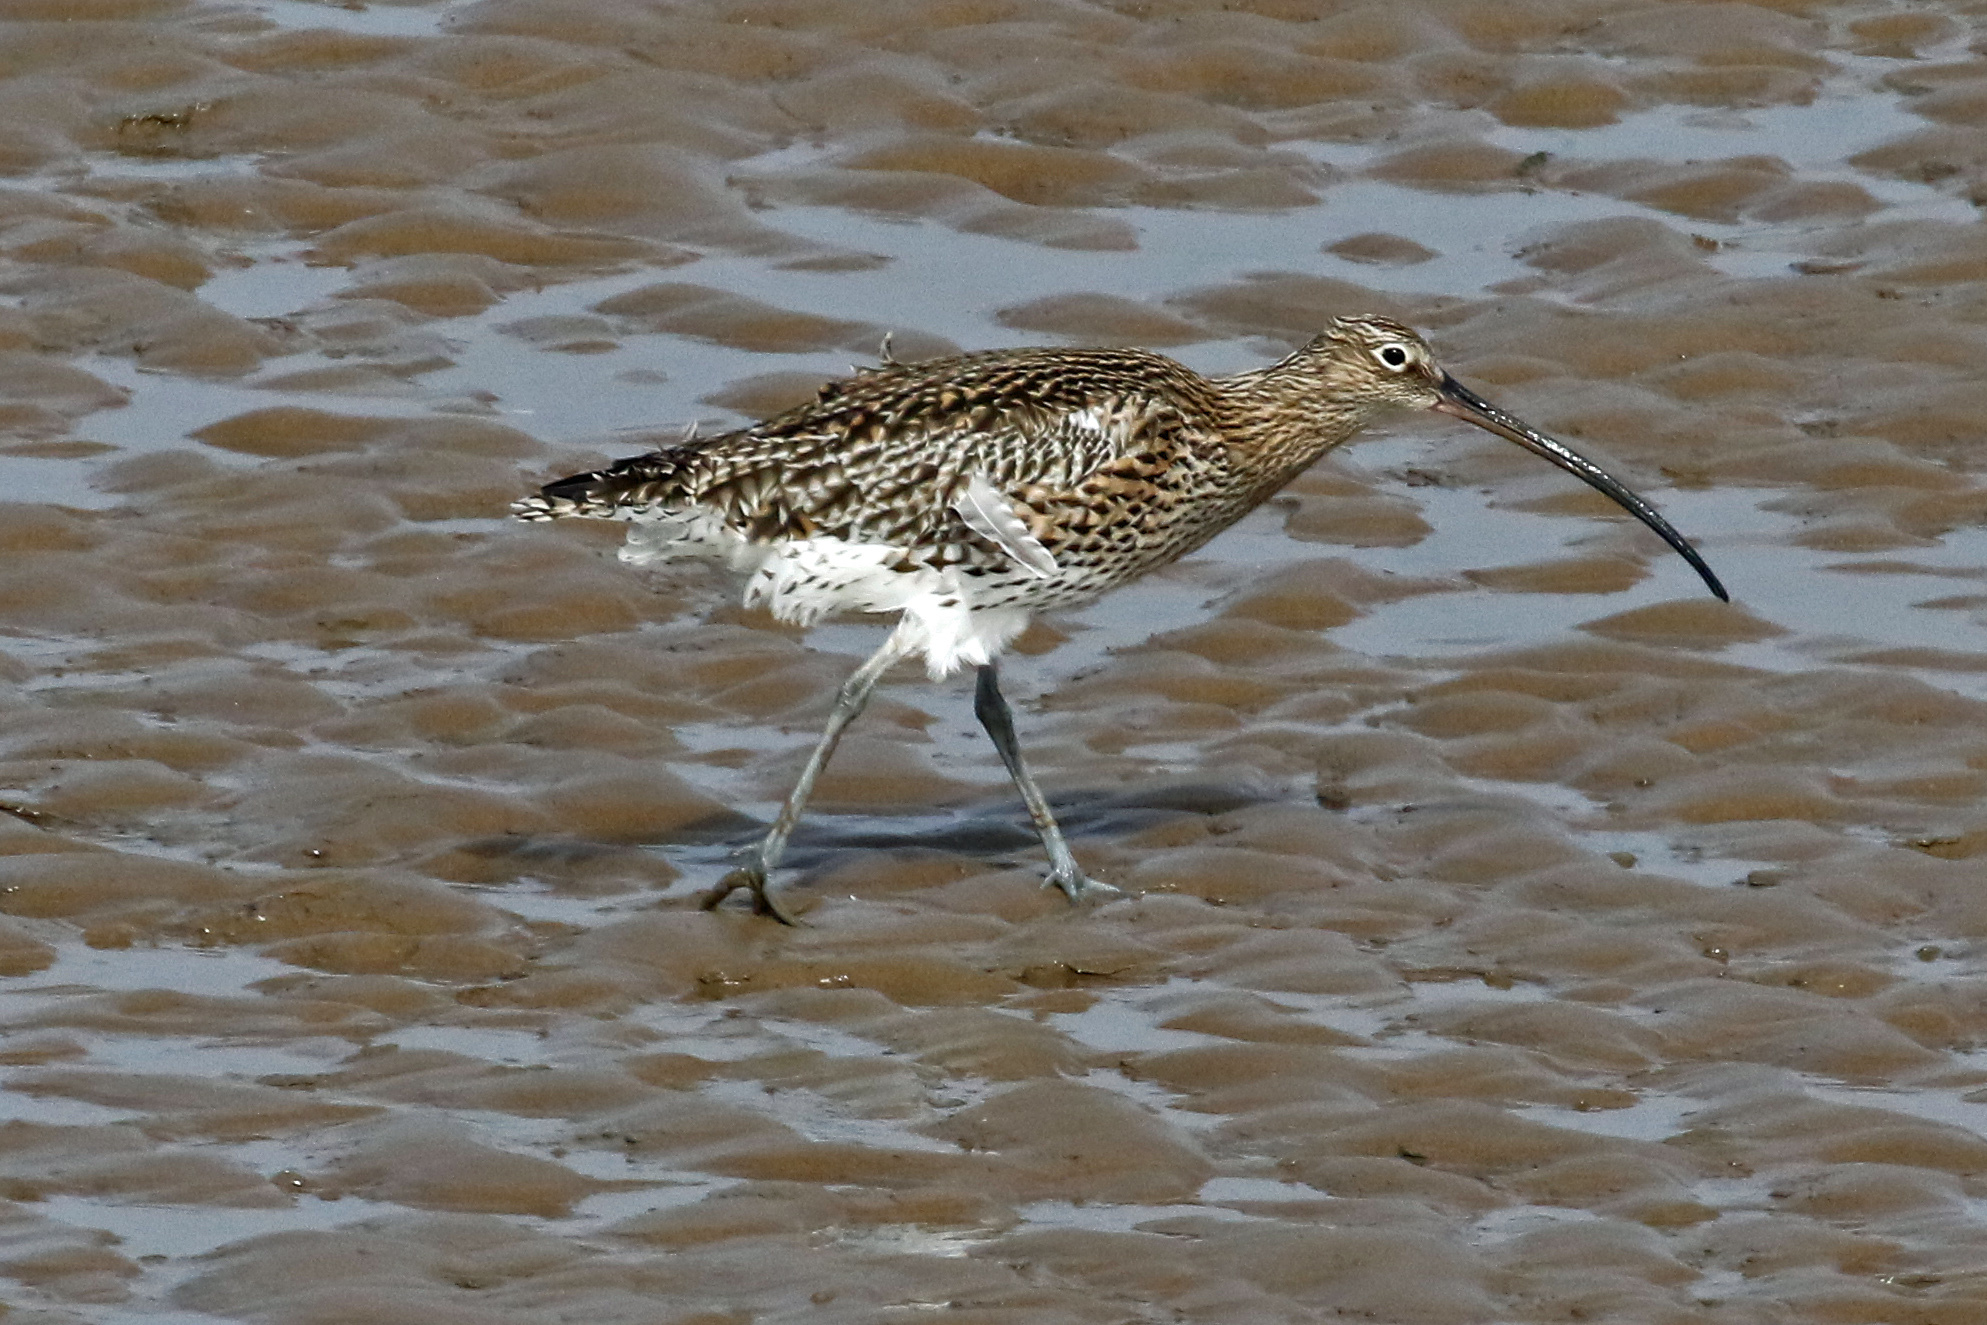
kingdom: Animalia
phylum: Chordata
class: Aves
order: Charadriiformes
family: Scolopacidae
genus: Numenius
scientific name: Numenius arquata
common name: Eurasian curlew
